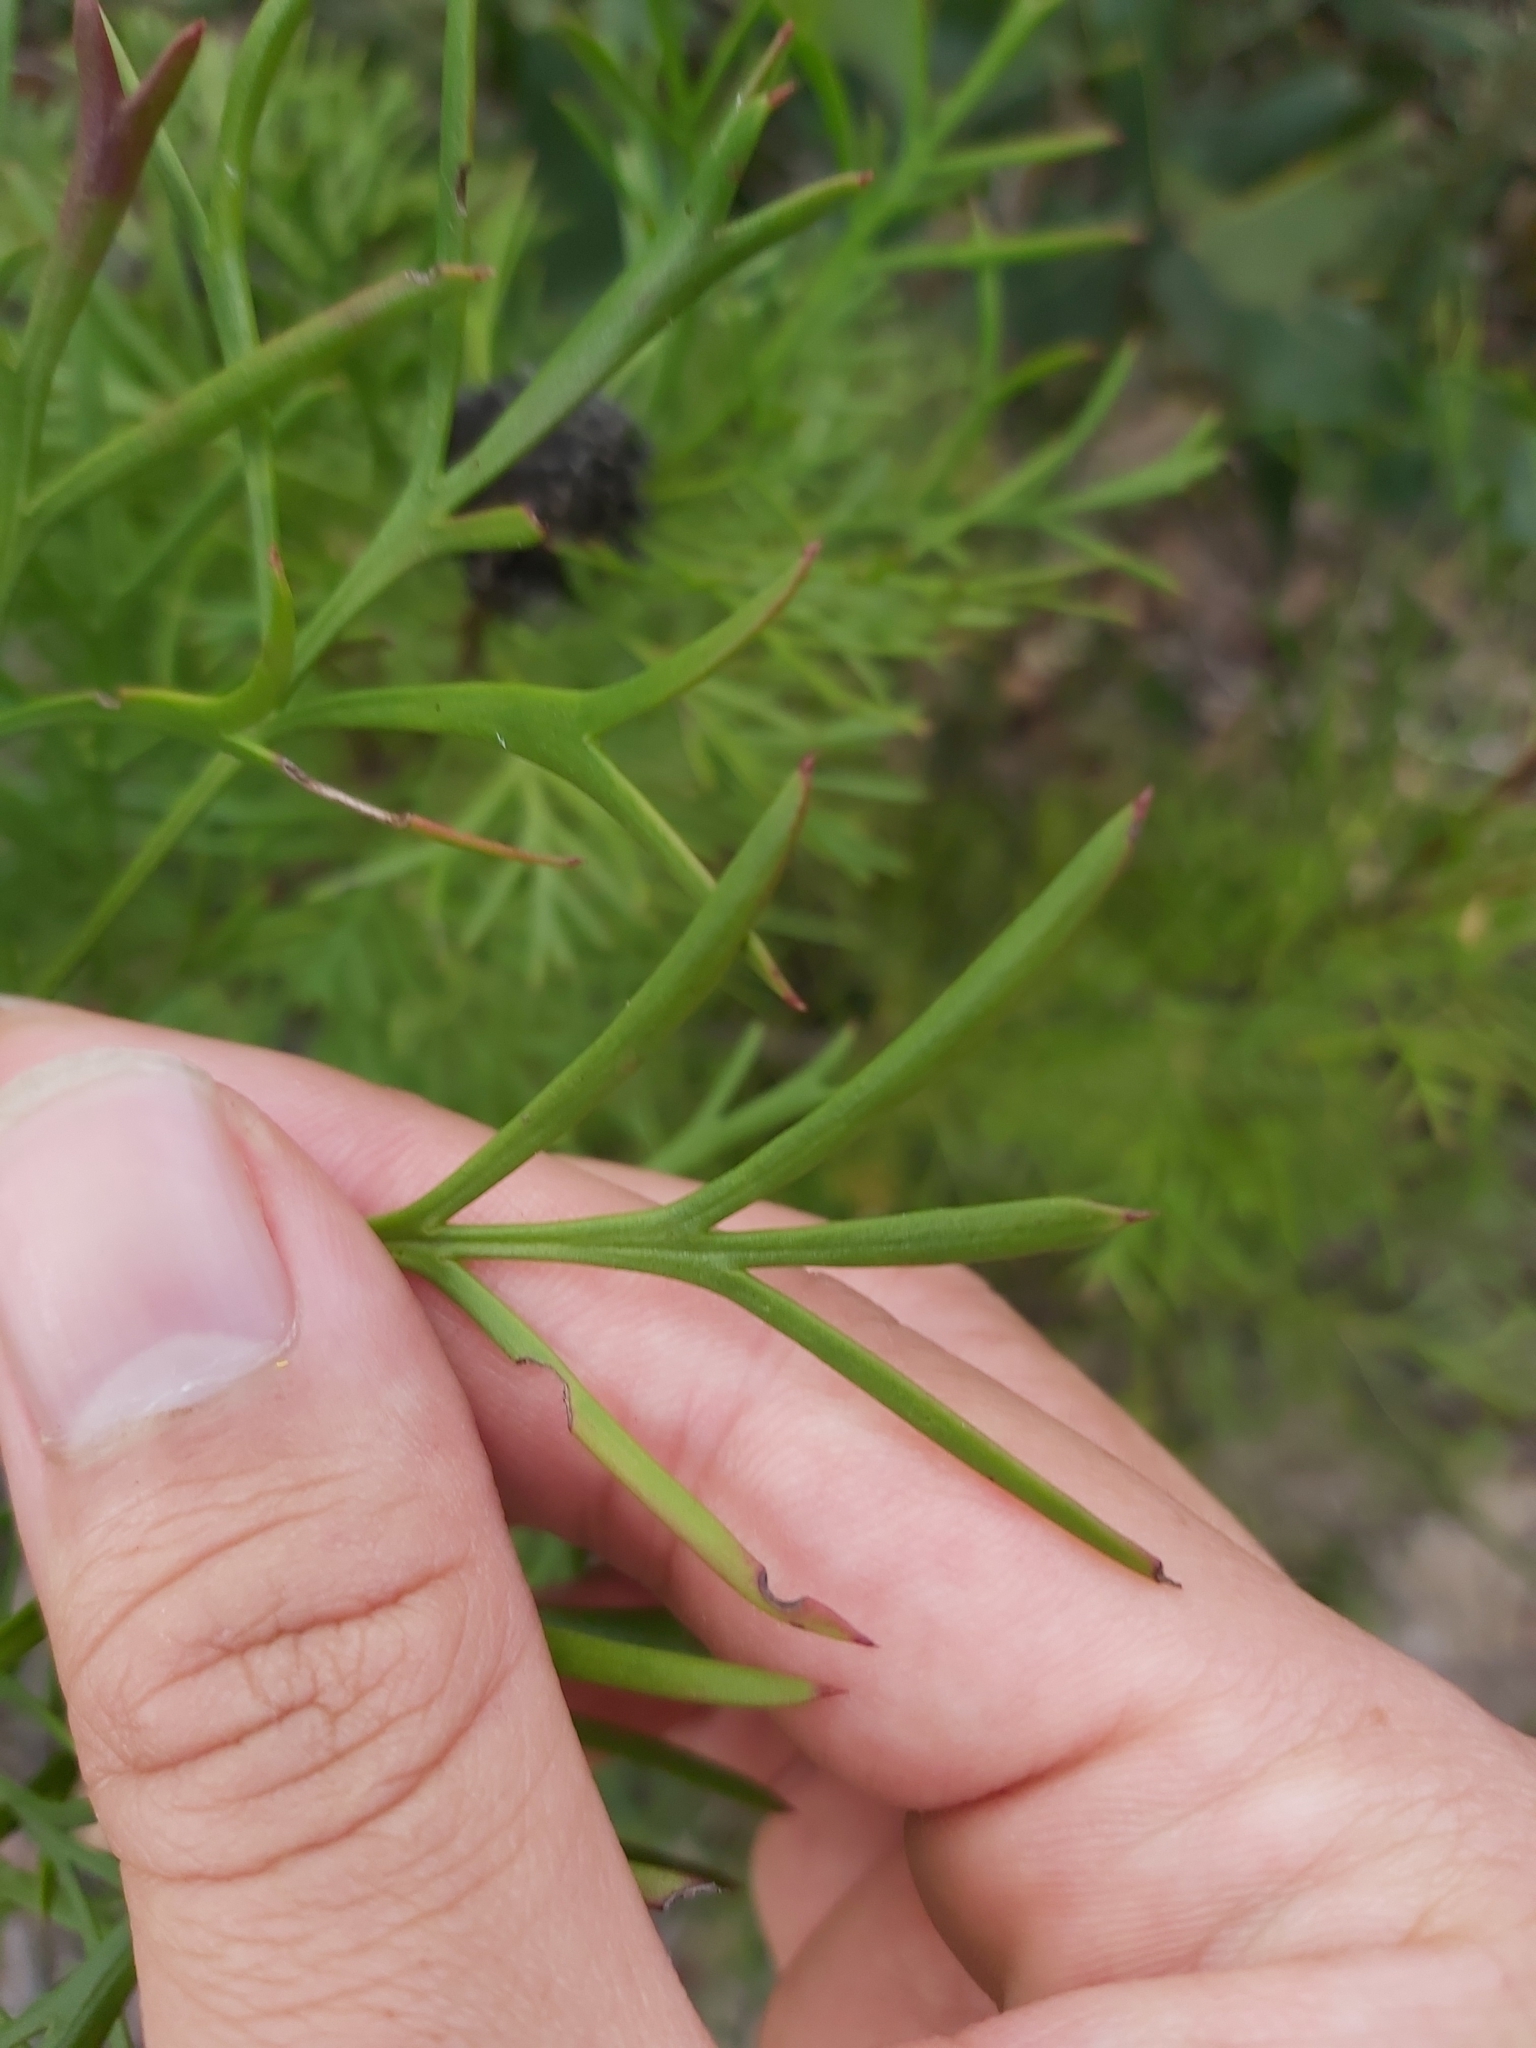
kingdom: Plantae
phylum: Tracheophyta
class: Magnoliopsida
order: Proteales
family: Proteaceae
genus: Isopogon
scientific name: Isopogon anemonifolius
